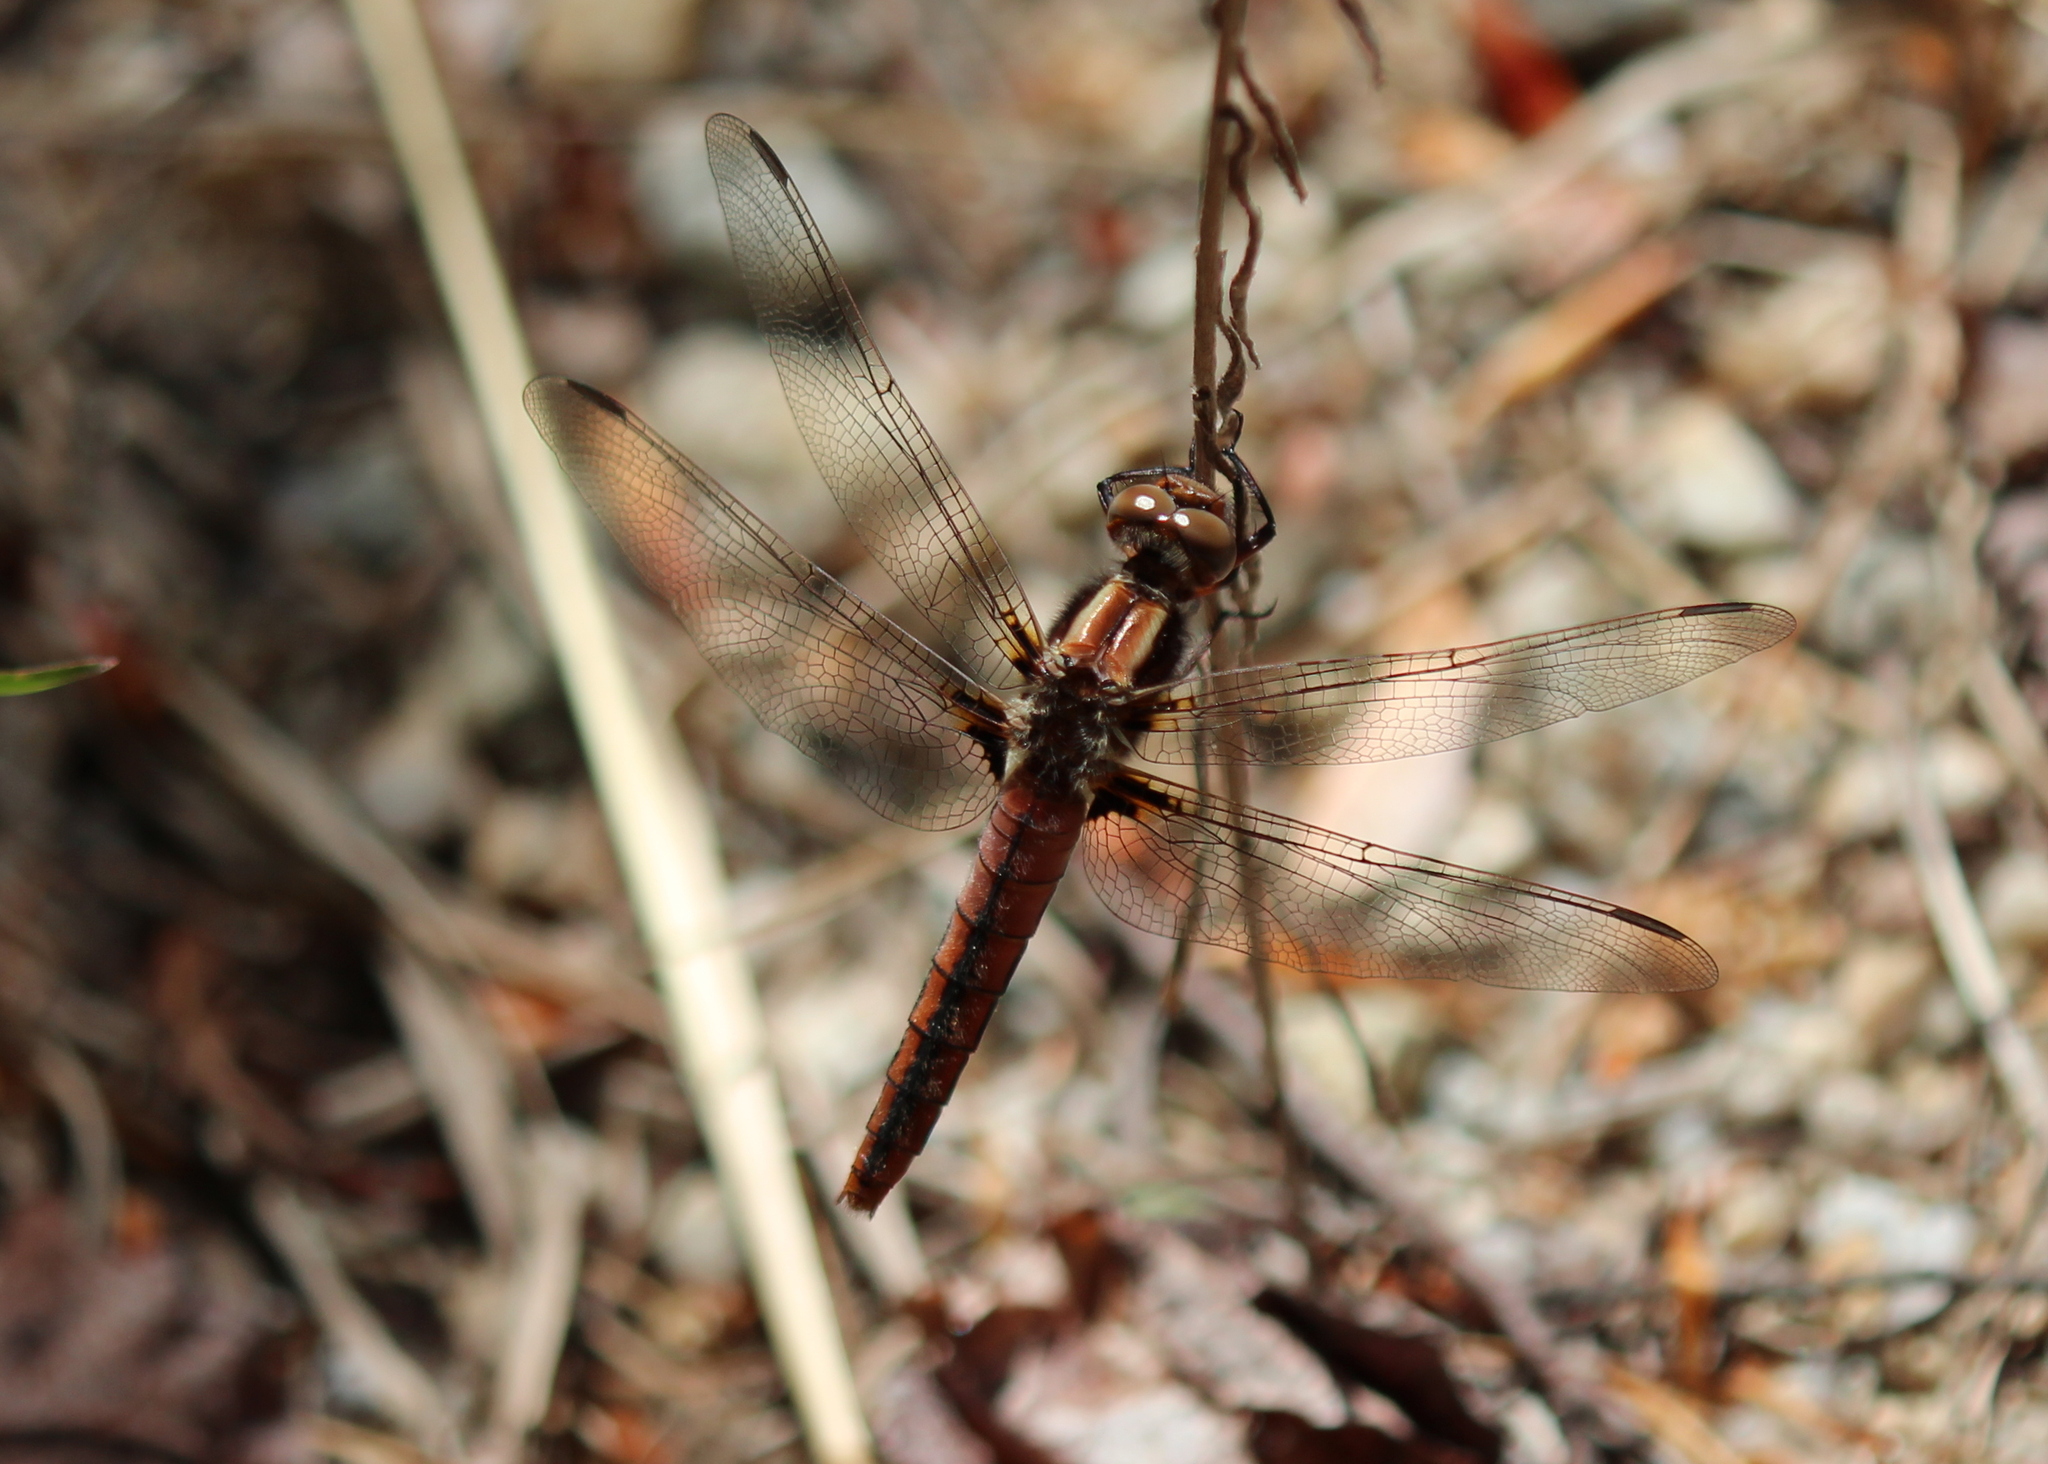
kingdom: Animalia
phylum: Arthropoda
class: Insecta
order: Odonata
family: Libellulidae
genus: Ladona
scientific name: Ladona julia
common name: Chalk-fronted corporal
